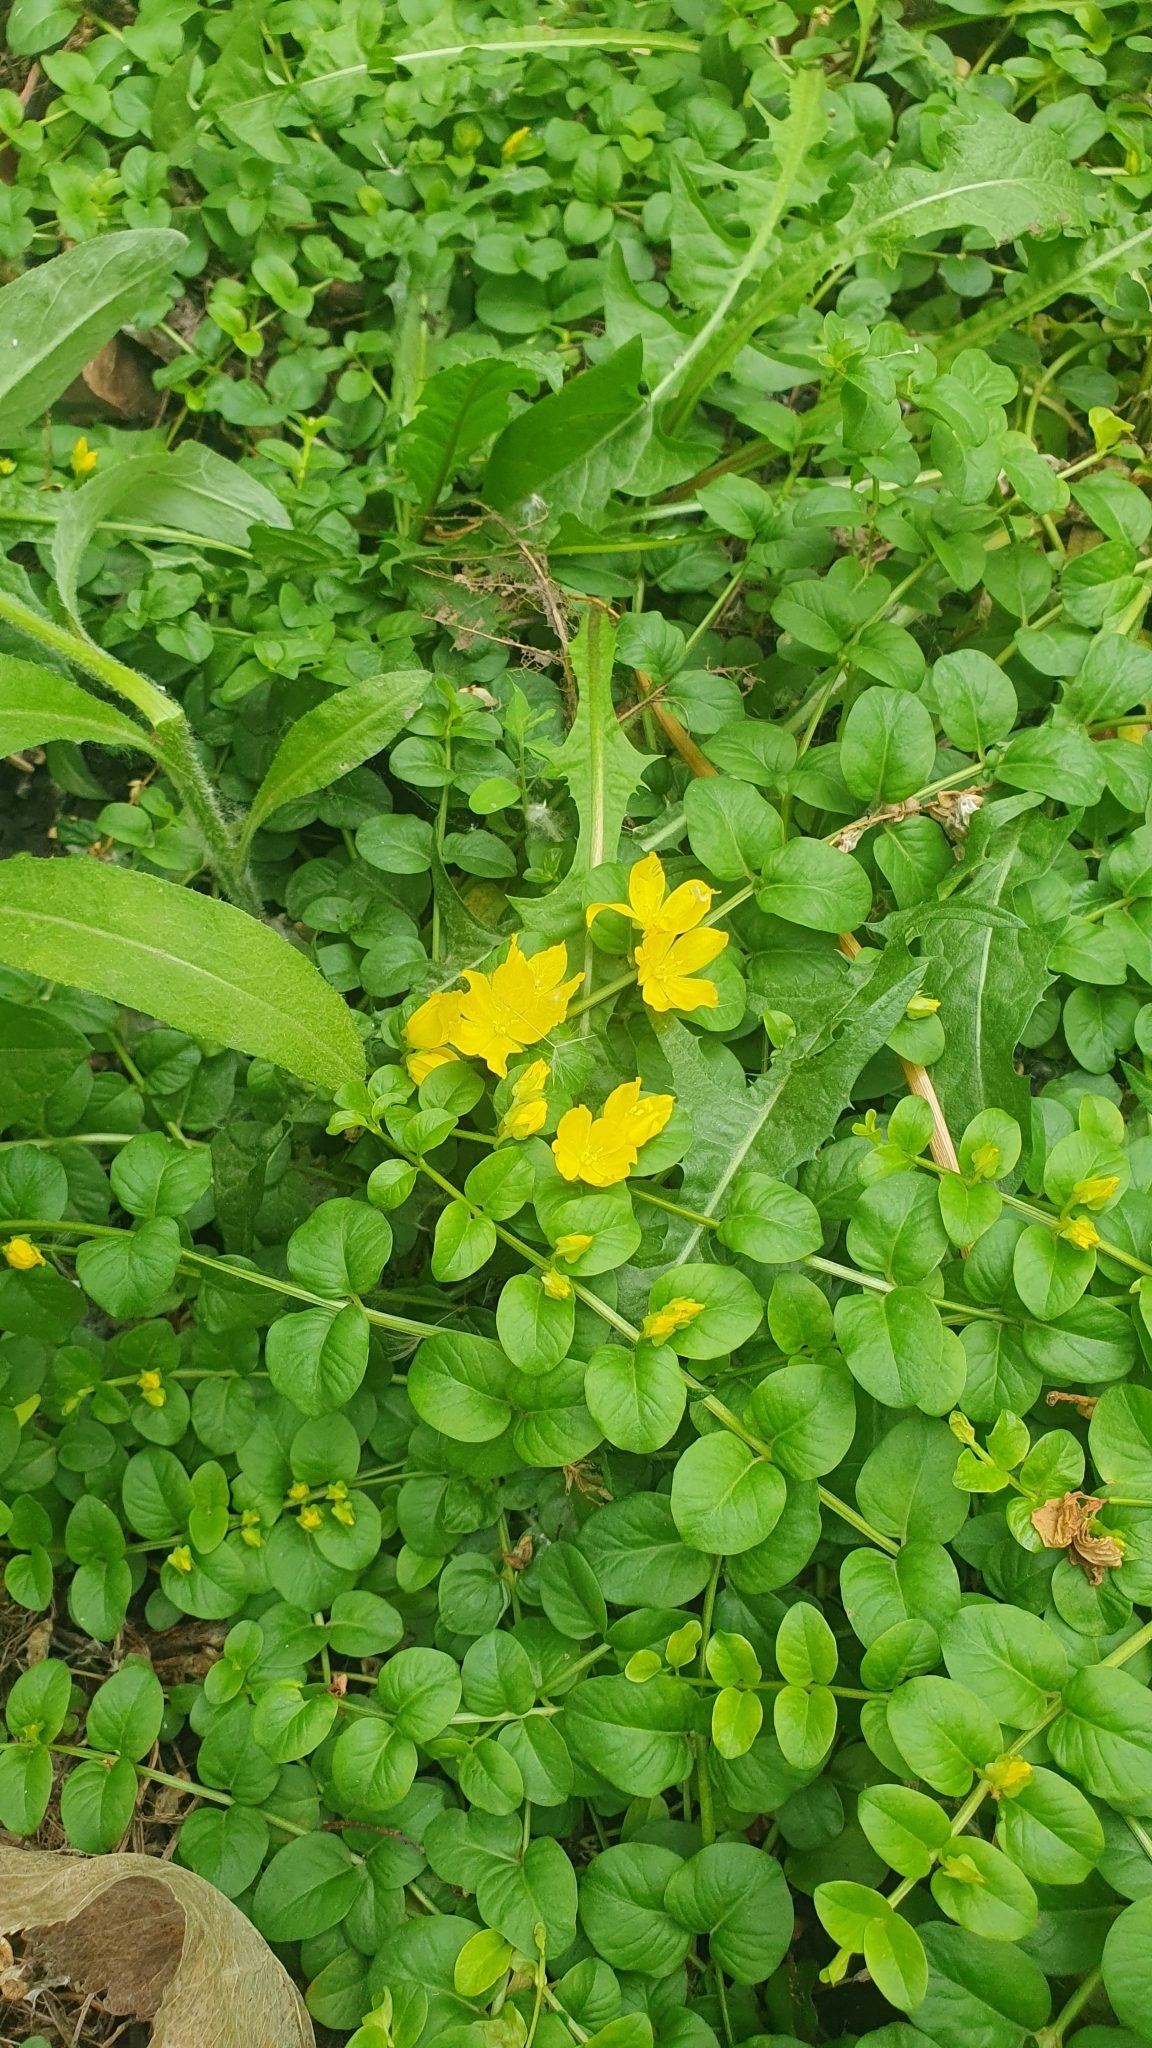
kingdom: Plantae
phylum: Tracheophyta
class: Magnoliopsida
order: Ericales
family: Primulaceae
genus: Lysimachia
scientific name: Lysimachia nummularia
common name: Moneywort
